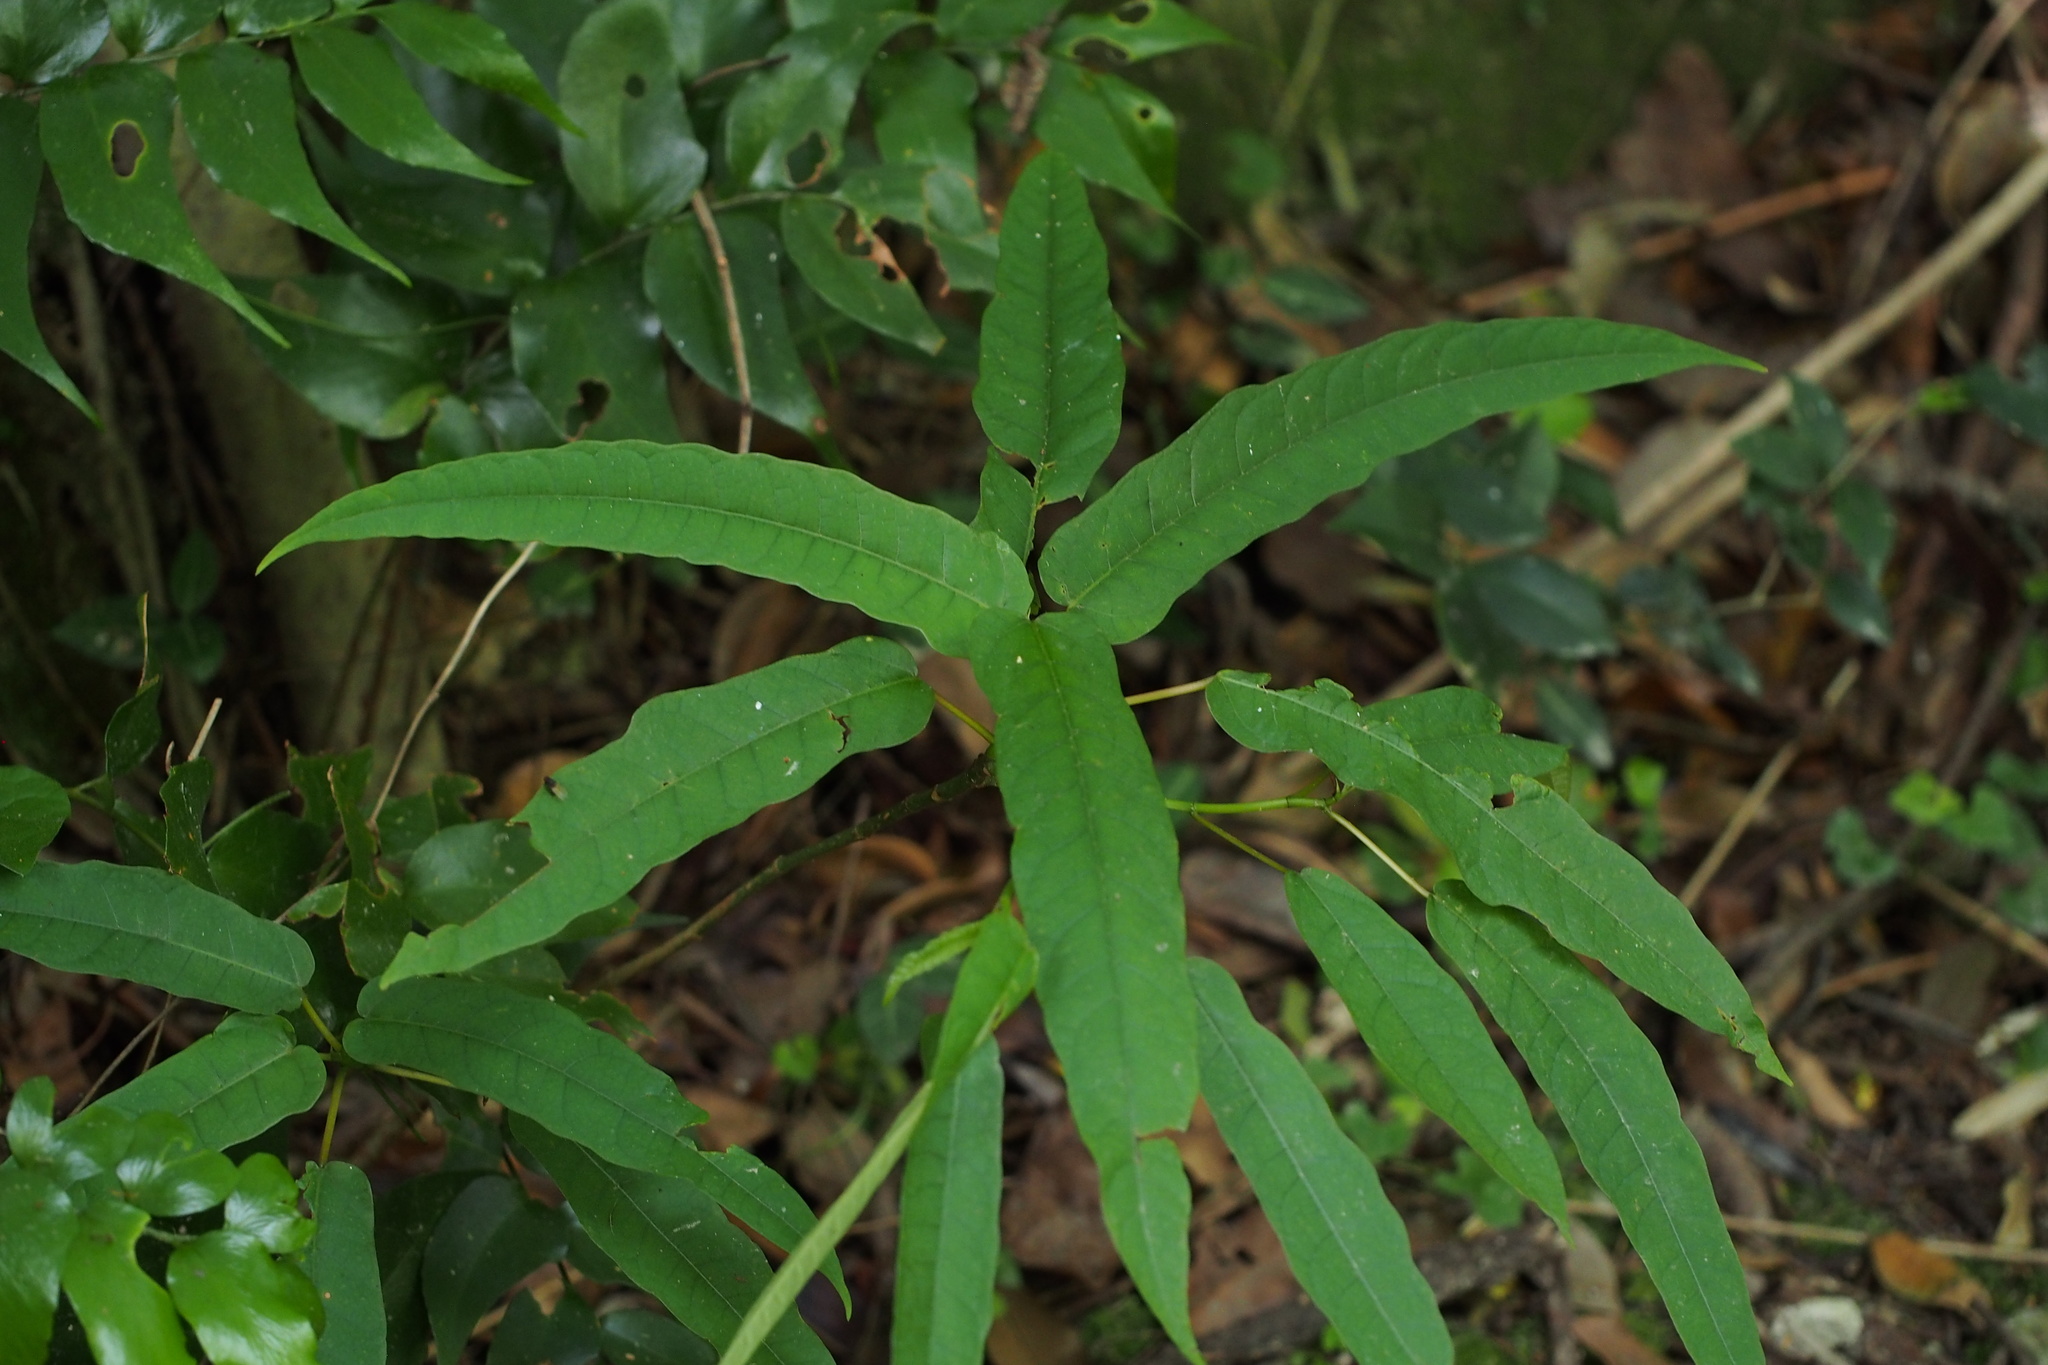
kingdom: Plantae
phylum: Tracheophyta
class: Magnoliopsida
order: Rosales
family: Moraceae
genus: Ficus
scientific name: Ficus erecta
